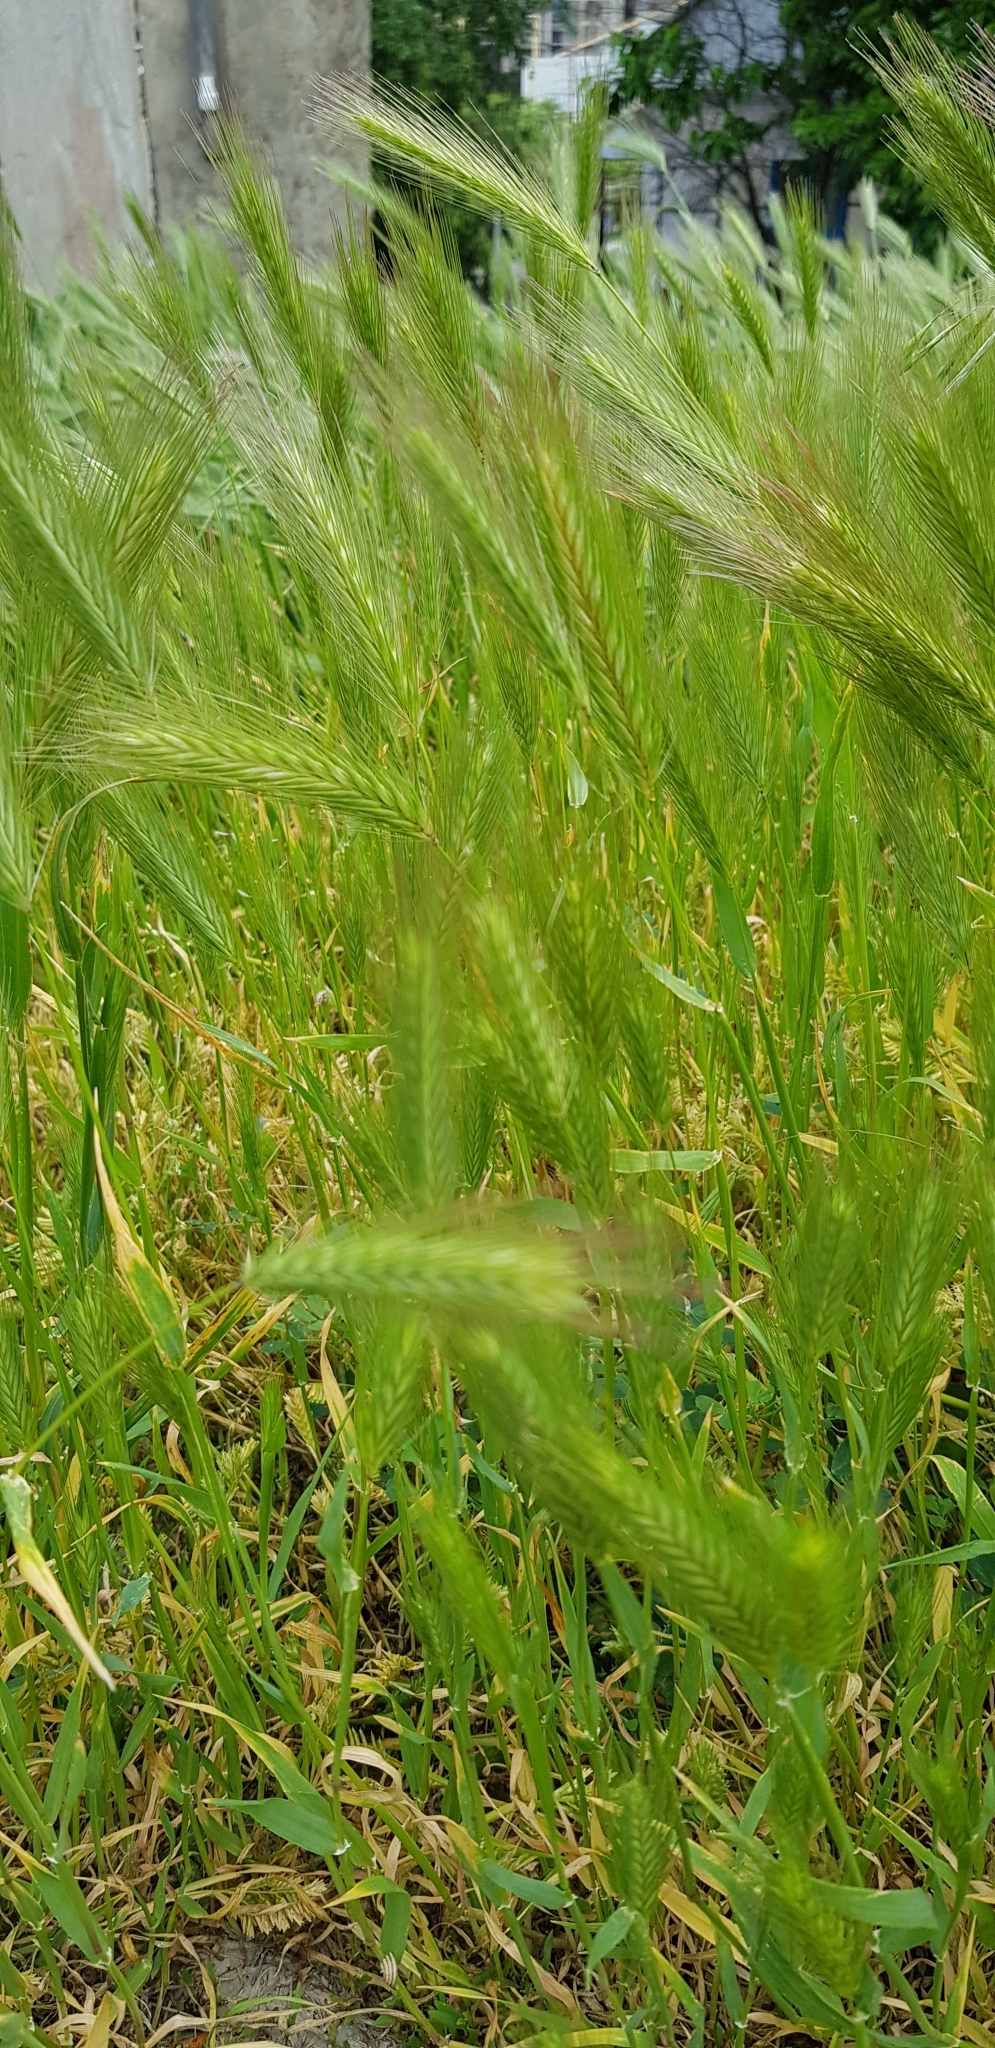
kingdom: Plantae
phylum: Tracheophyta
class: Liliopsida
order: Poales
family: Poaceae
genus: Hordeum
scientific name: Hordeum murinum
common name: Wall barley
